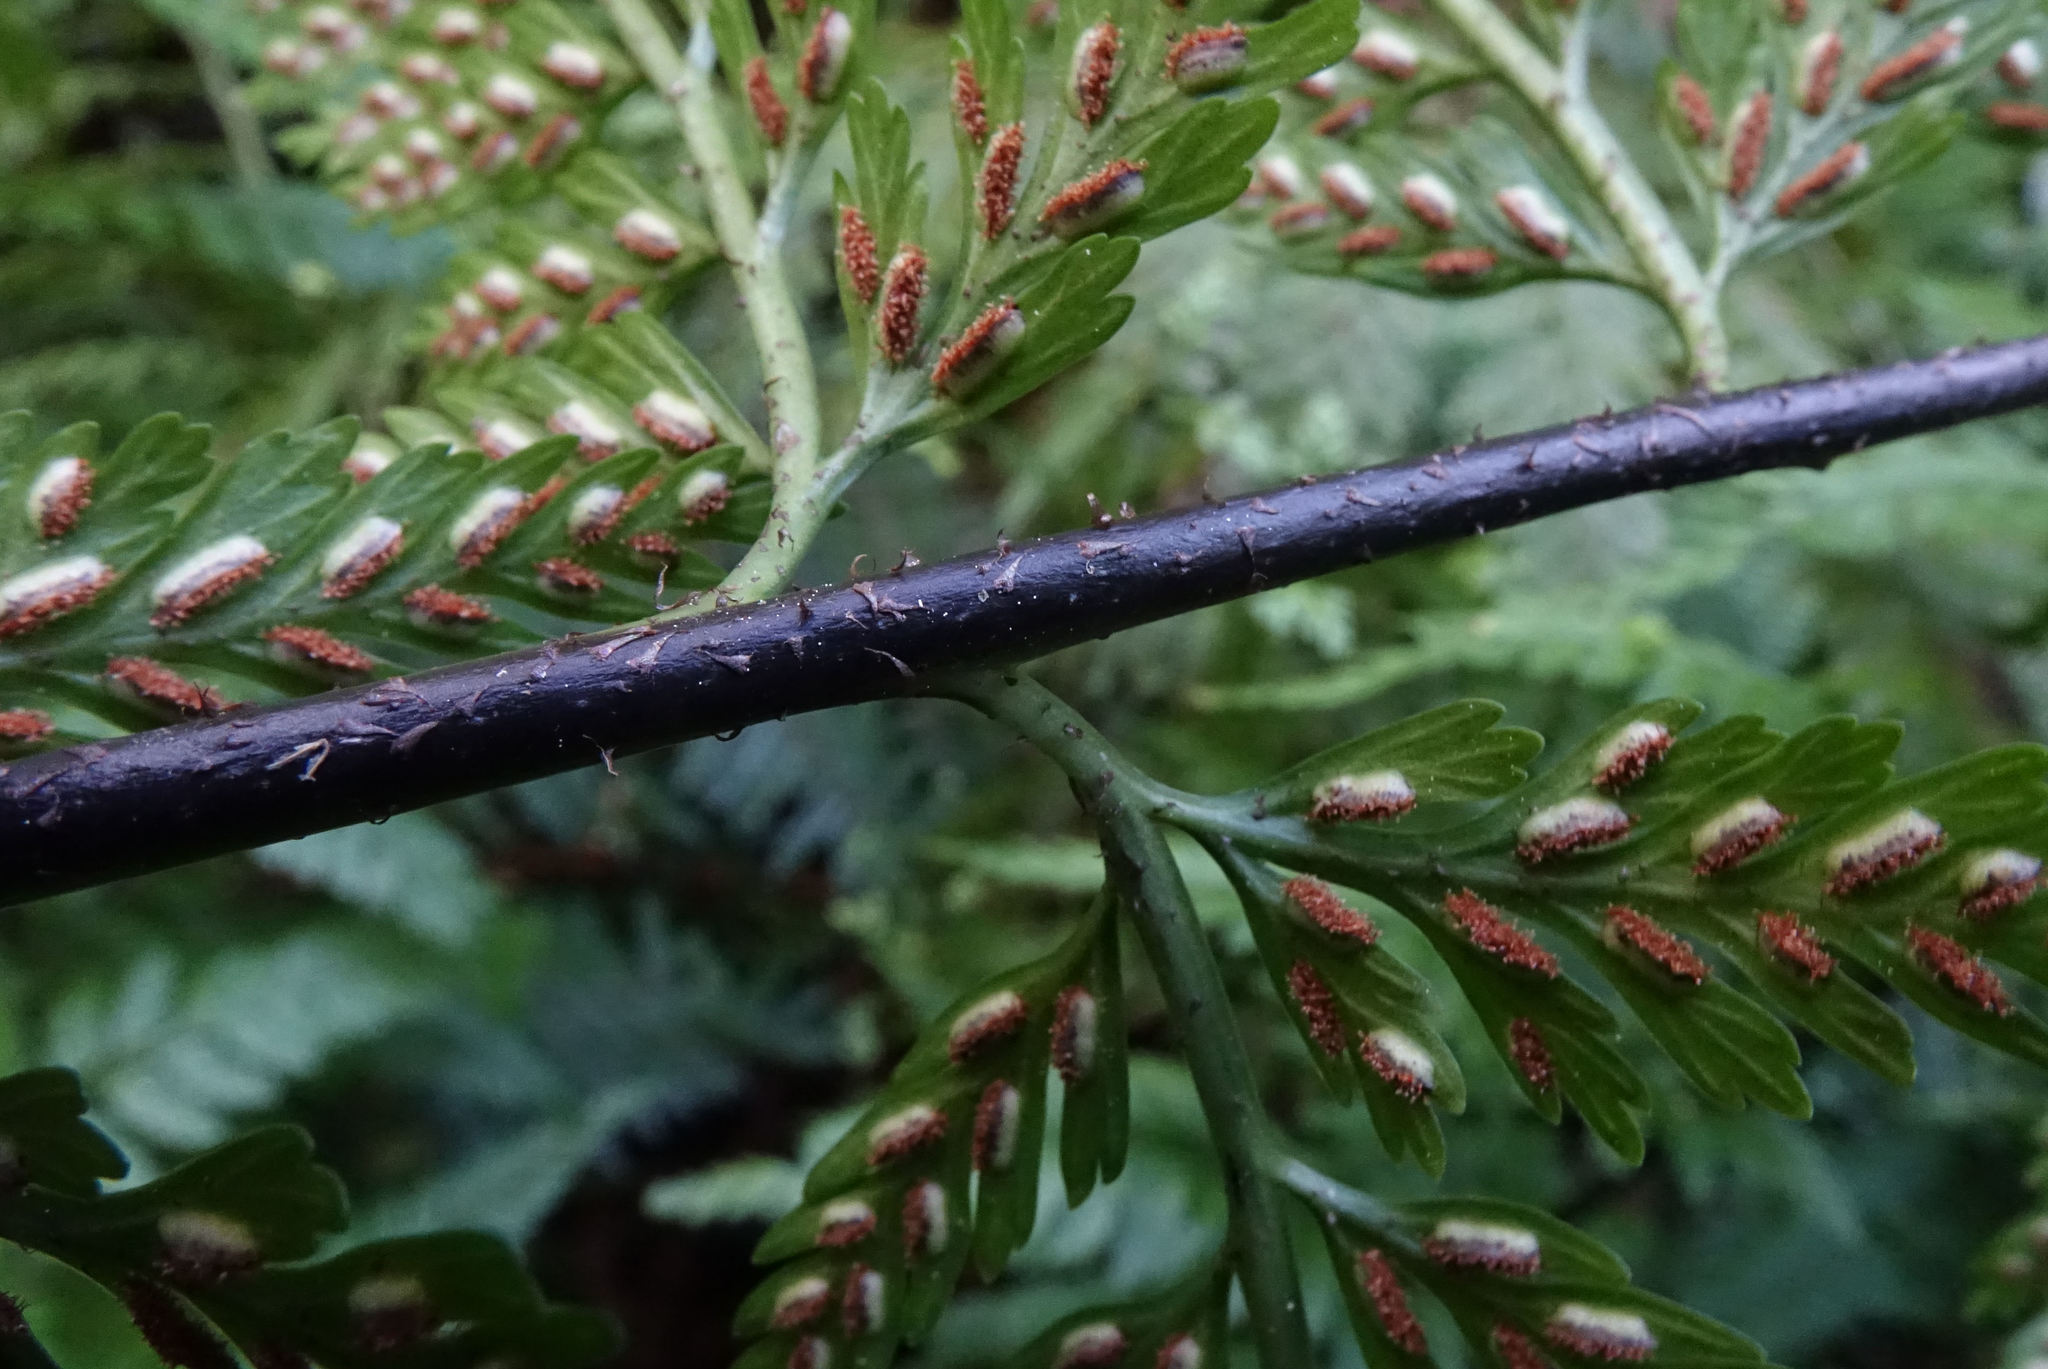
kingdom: Plantae
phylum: Tracheophyta
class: Polypodiopsida
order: Polypodiales
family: Aspleniaceae
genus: Asplenium
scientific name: Asplenium
